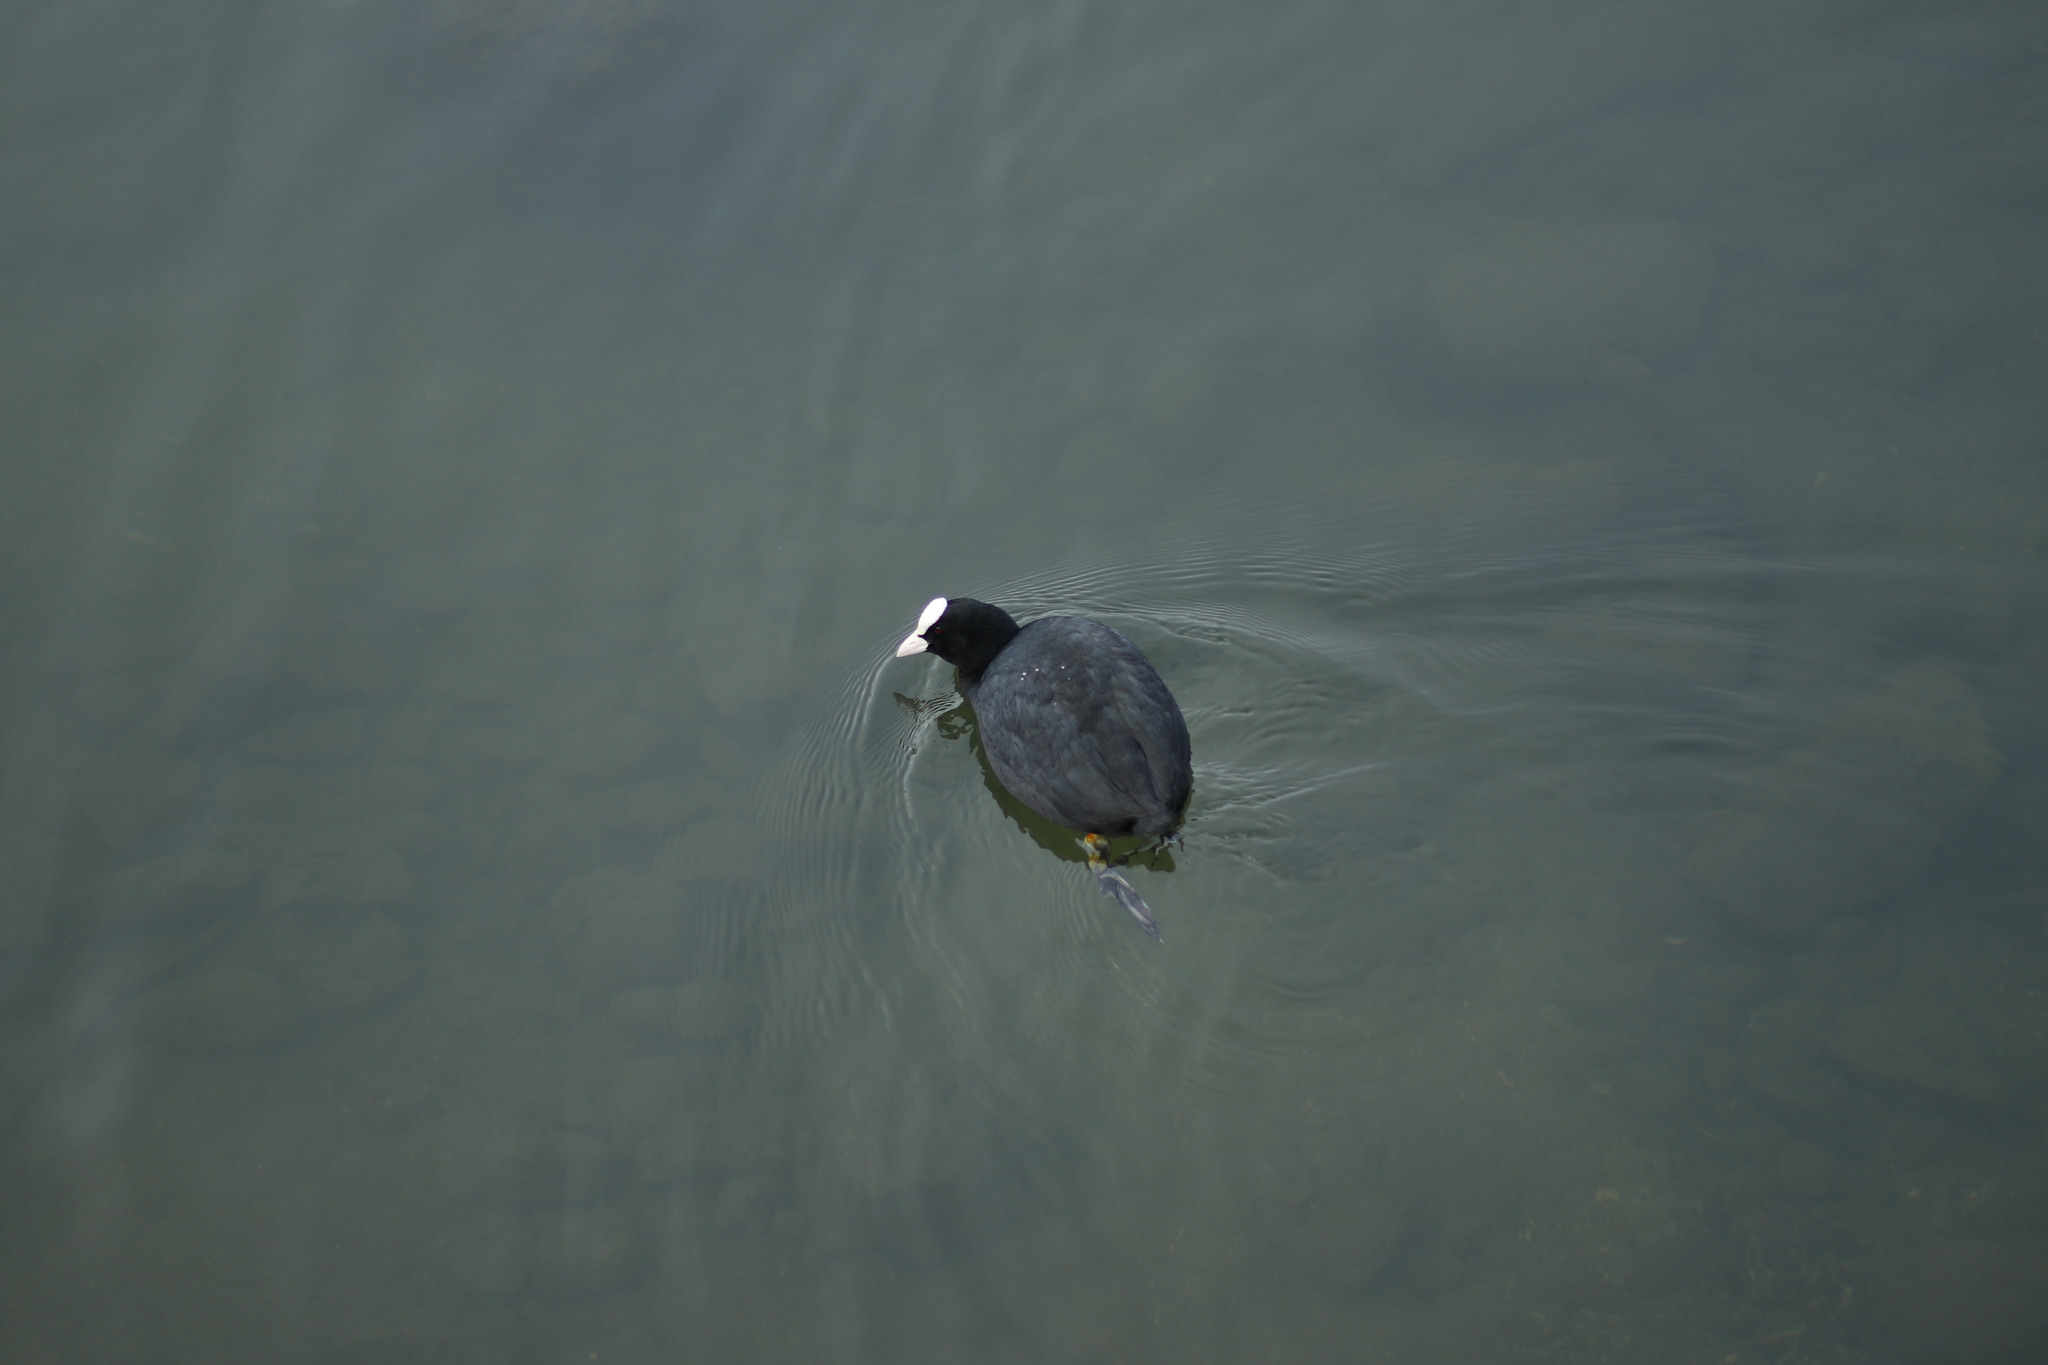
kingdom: Animalia
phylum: Chordata
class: Aves
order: Gruiformes
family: Rallidae
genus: Fulica
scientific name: Fulica atra
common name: Eurasian coot
